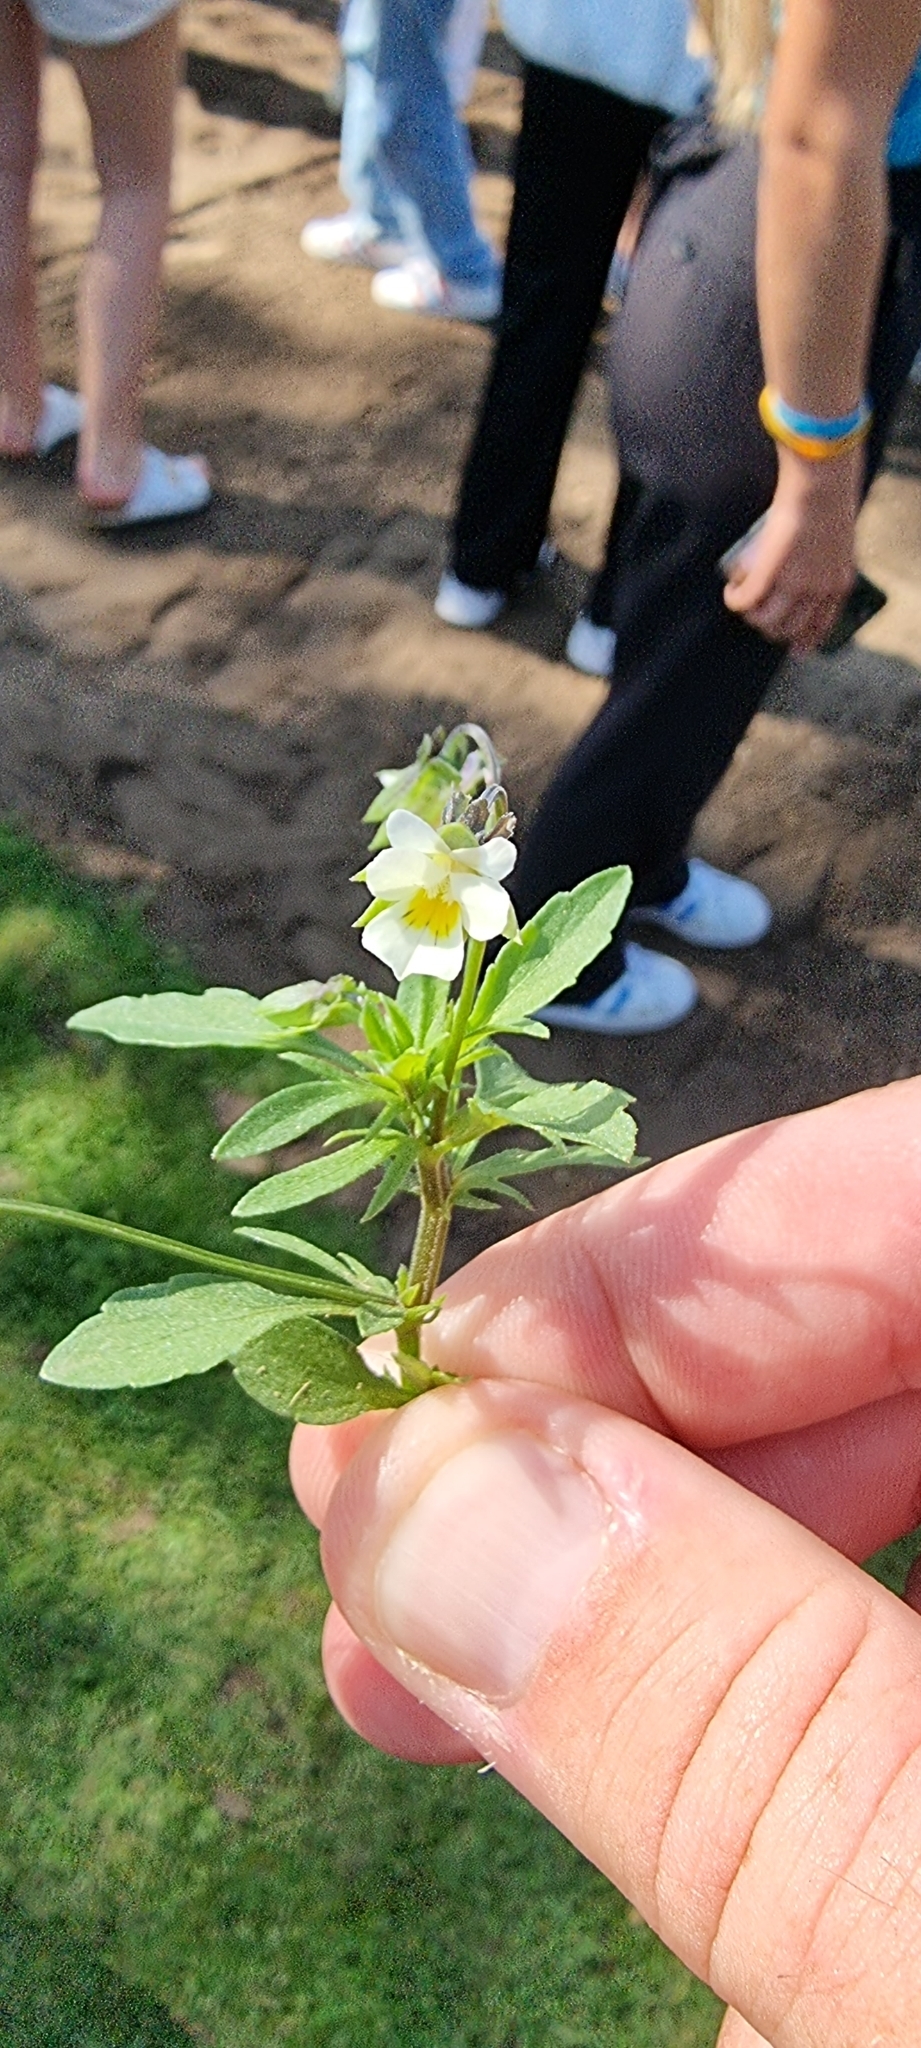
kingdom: Plantae
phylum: Tracheophyta
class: Magnoliopsida
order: Malpighiales
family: Violaceae
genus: Viola
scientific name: Viola arvensis
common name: Field pansy
